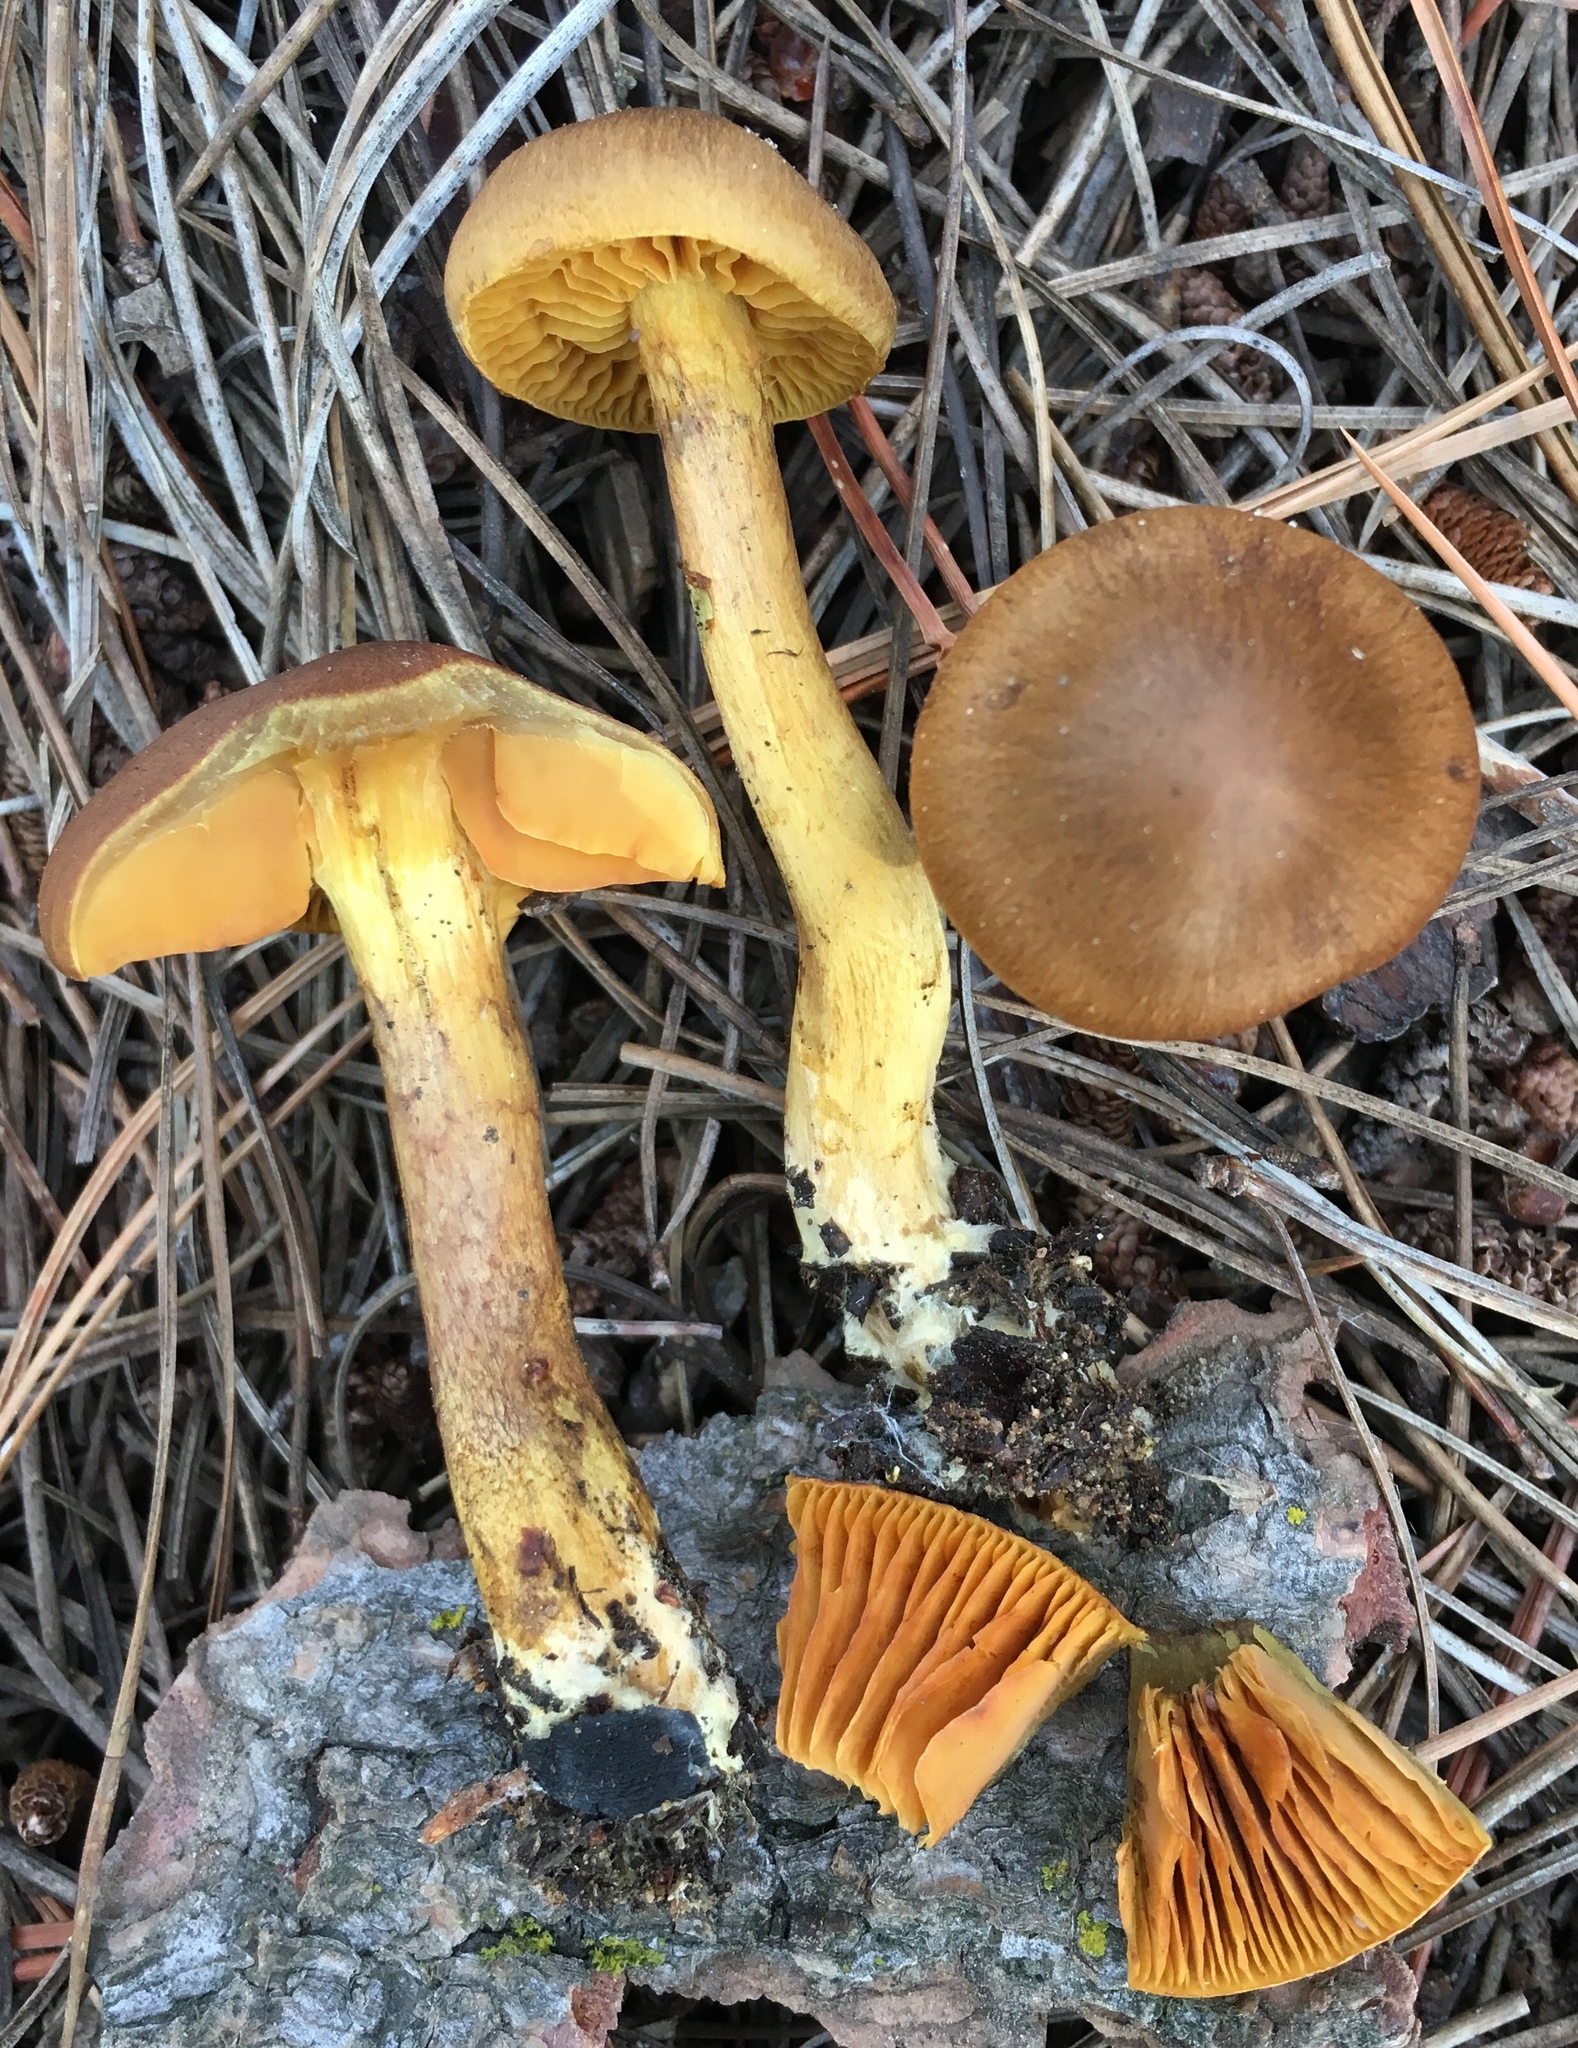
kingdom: Fungi
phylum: Basidiomycota
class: Agaricomycetes
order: Agaricales
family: Cortinariaceae
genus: Cortinarius
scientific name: Cortinarius thiersii
